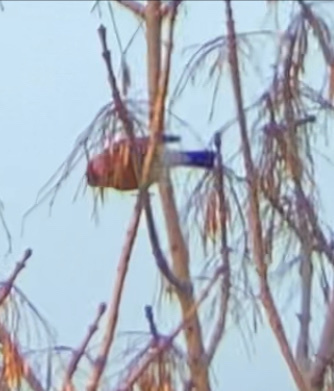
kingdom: Animalia
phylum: Chordata
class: Aves
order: Passeriformes
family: Fringillidae
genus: Pyrrhula
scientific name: Pyrrhula pyrrhula
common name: Eurasian bullfinch
